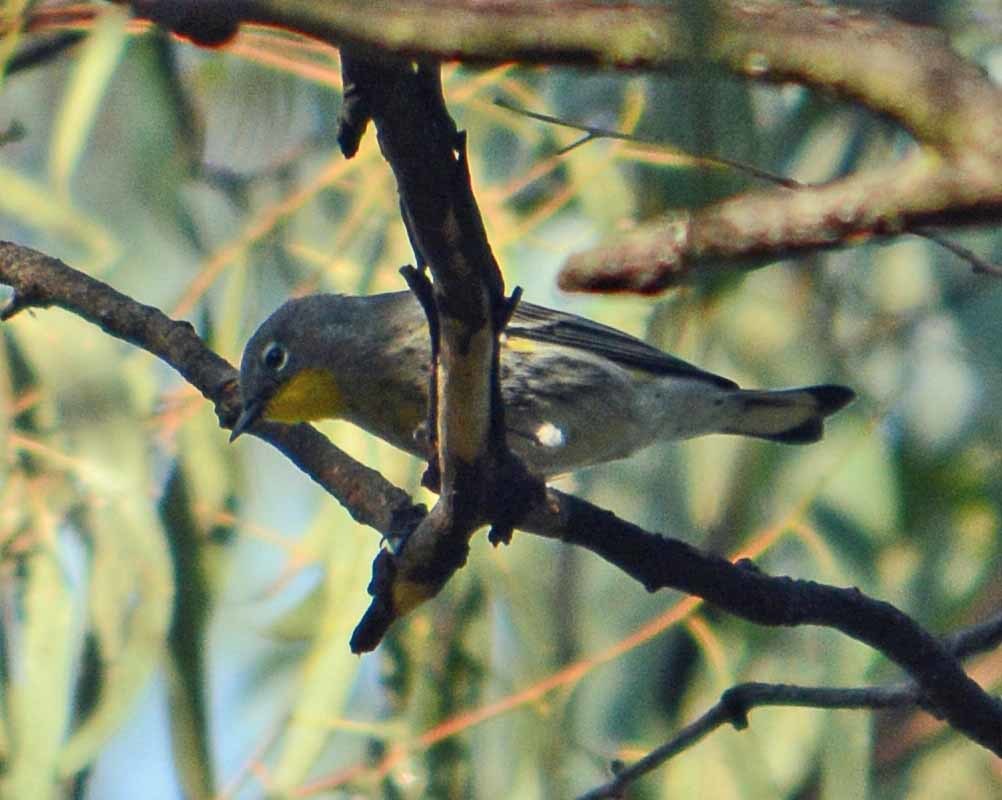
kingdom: Animalia
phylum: Chordata
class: Aves
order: Passeriformes
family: Parulidae
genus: Setophaga
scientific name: Setophaga auduboni
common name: Audubon's warbler
